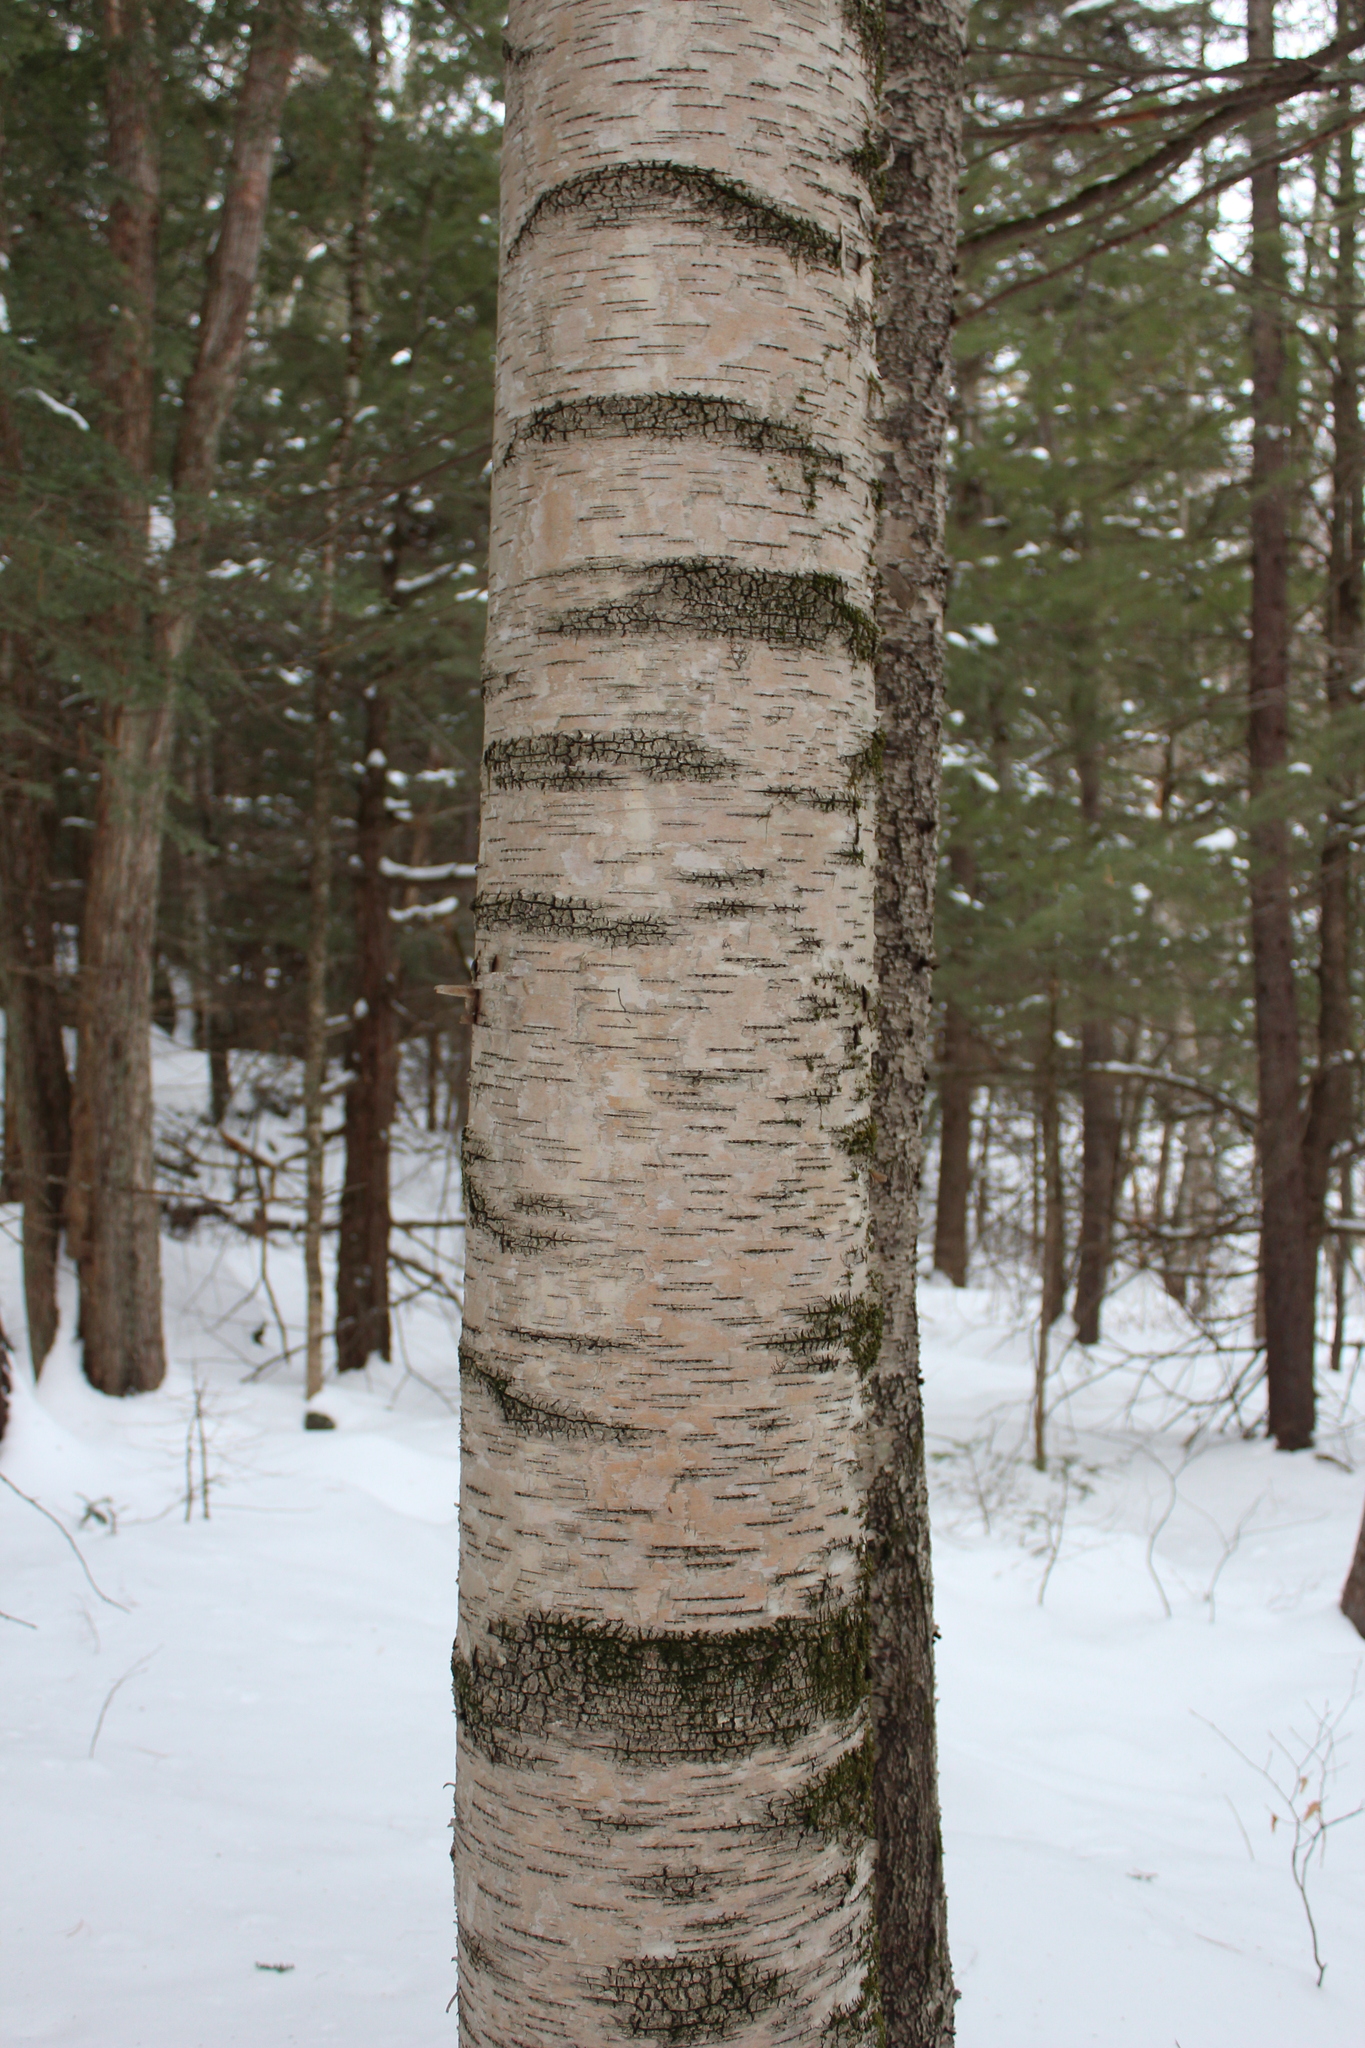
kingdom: Plantae
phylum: Tracheophyta
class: Magnoliopsida
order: Fagales
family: Betulaceae
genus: Betula
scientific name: Betula papyrifera
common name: Paper birch
